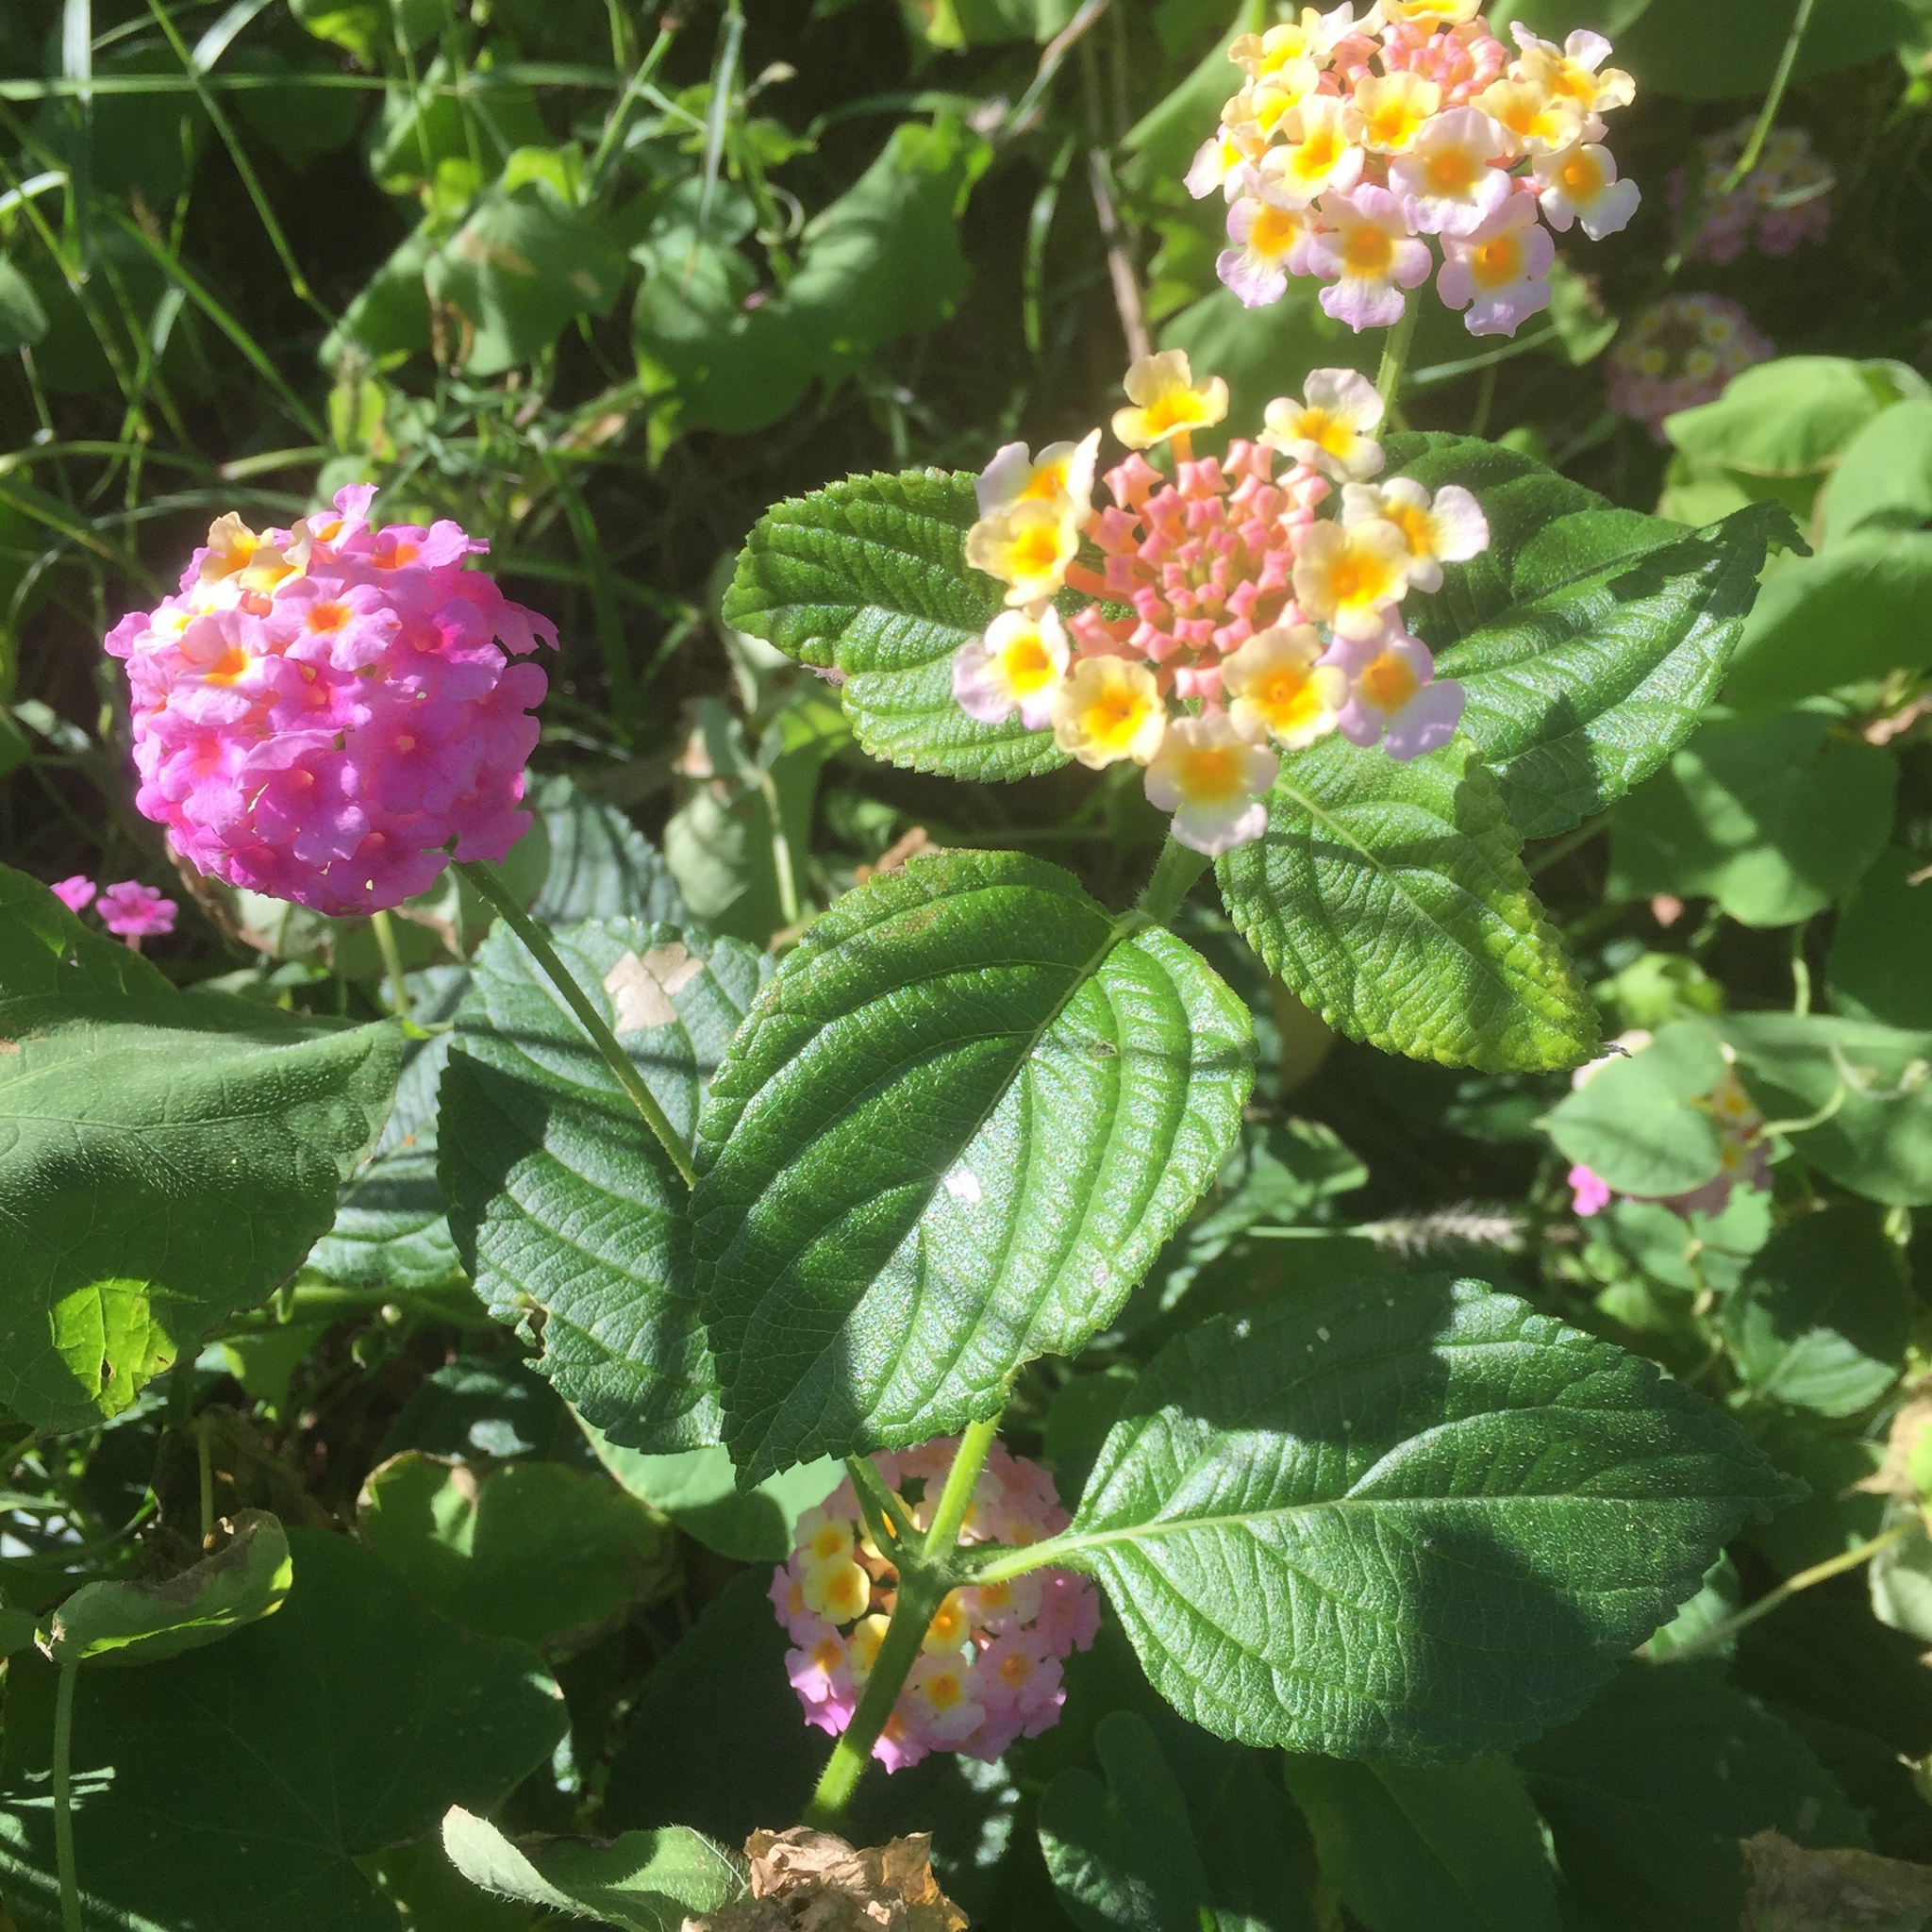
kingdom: Plantae
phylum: Tracheophyta
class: Magnoliopsida
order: Lamiales
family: Verbenaceae
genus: Lantana
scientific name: Lantana camara
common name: Lantana
